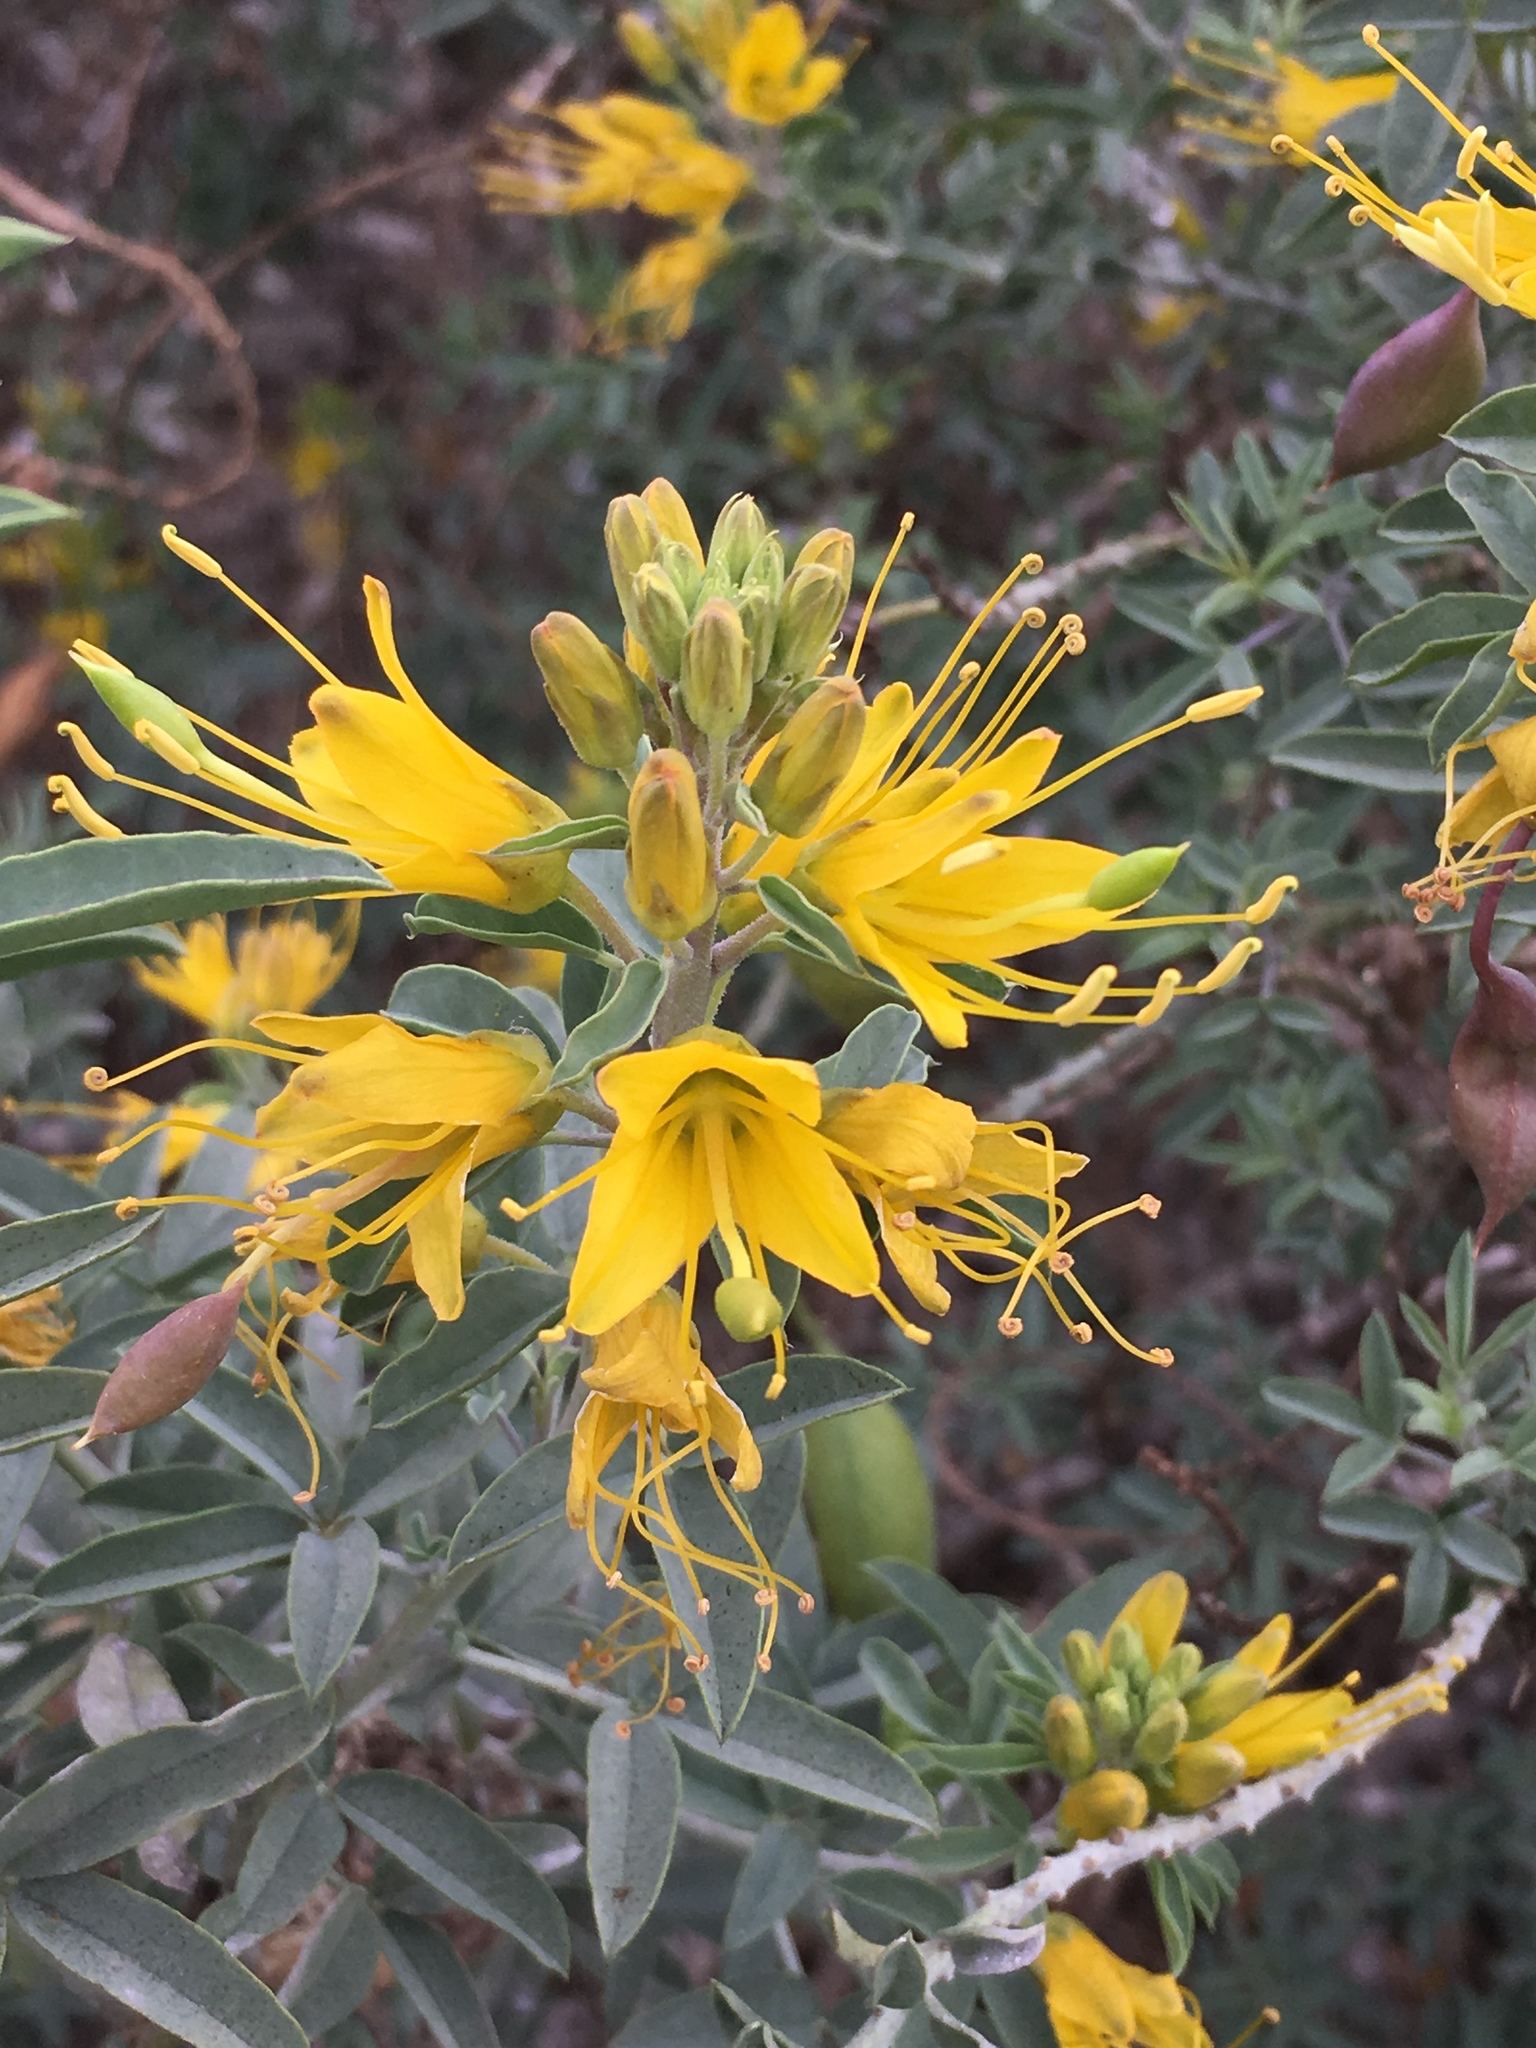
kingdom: Plantae
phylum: Tracheophyta
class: Magnoliopsida
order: Brassicales
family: Cleomaceae
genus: Cleomella
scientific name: Cleomella arborea
